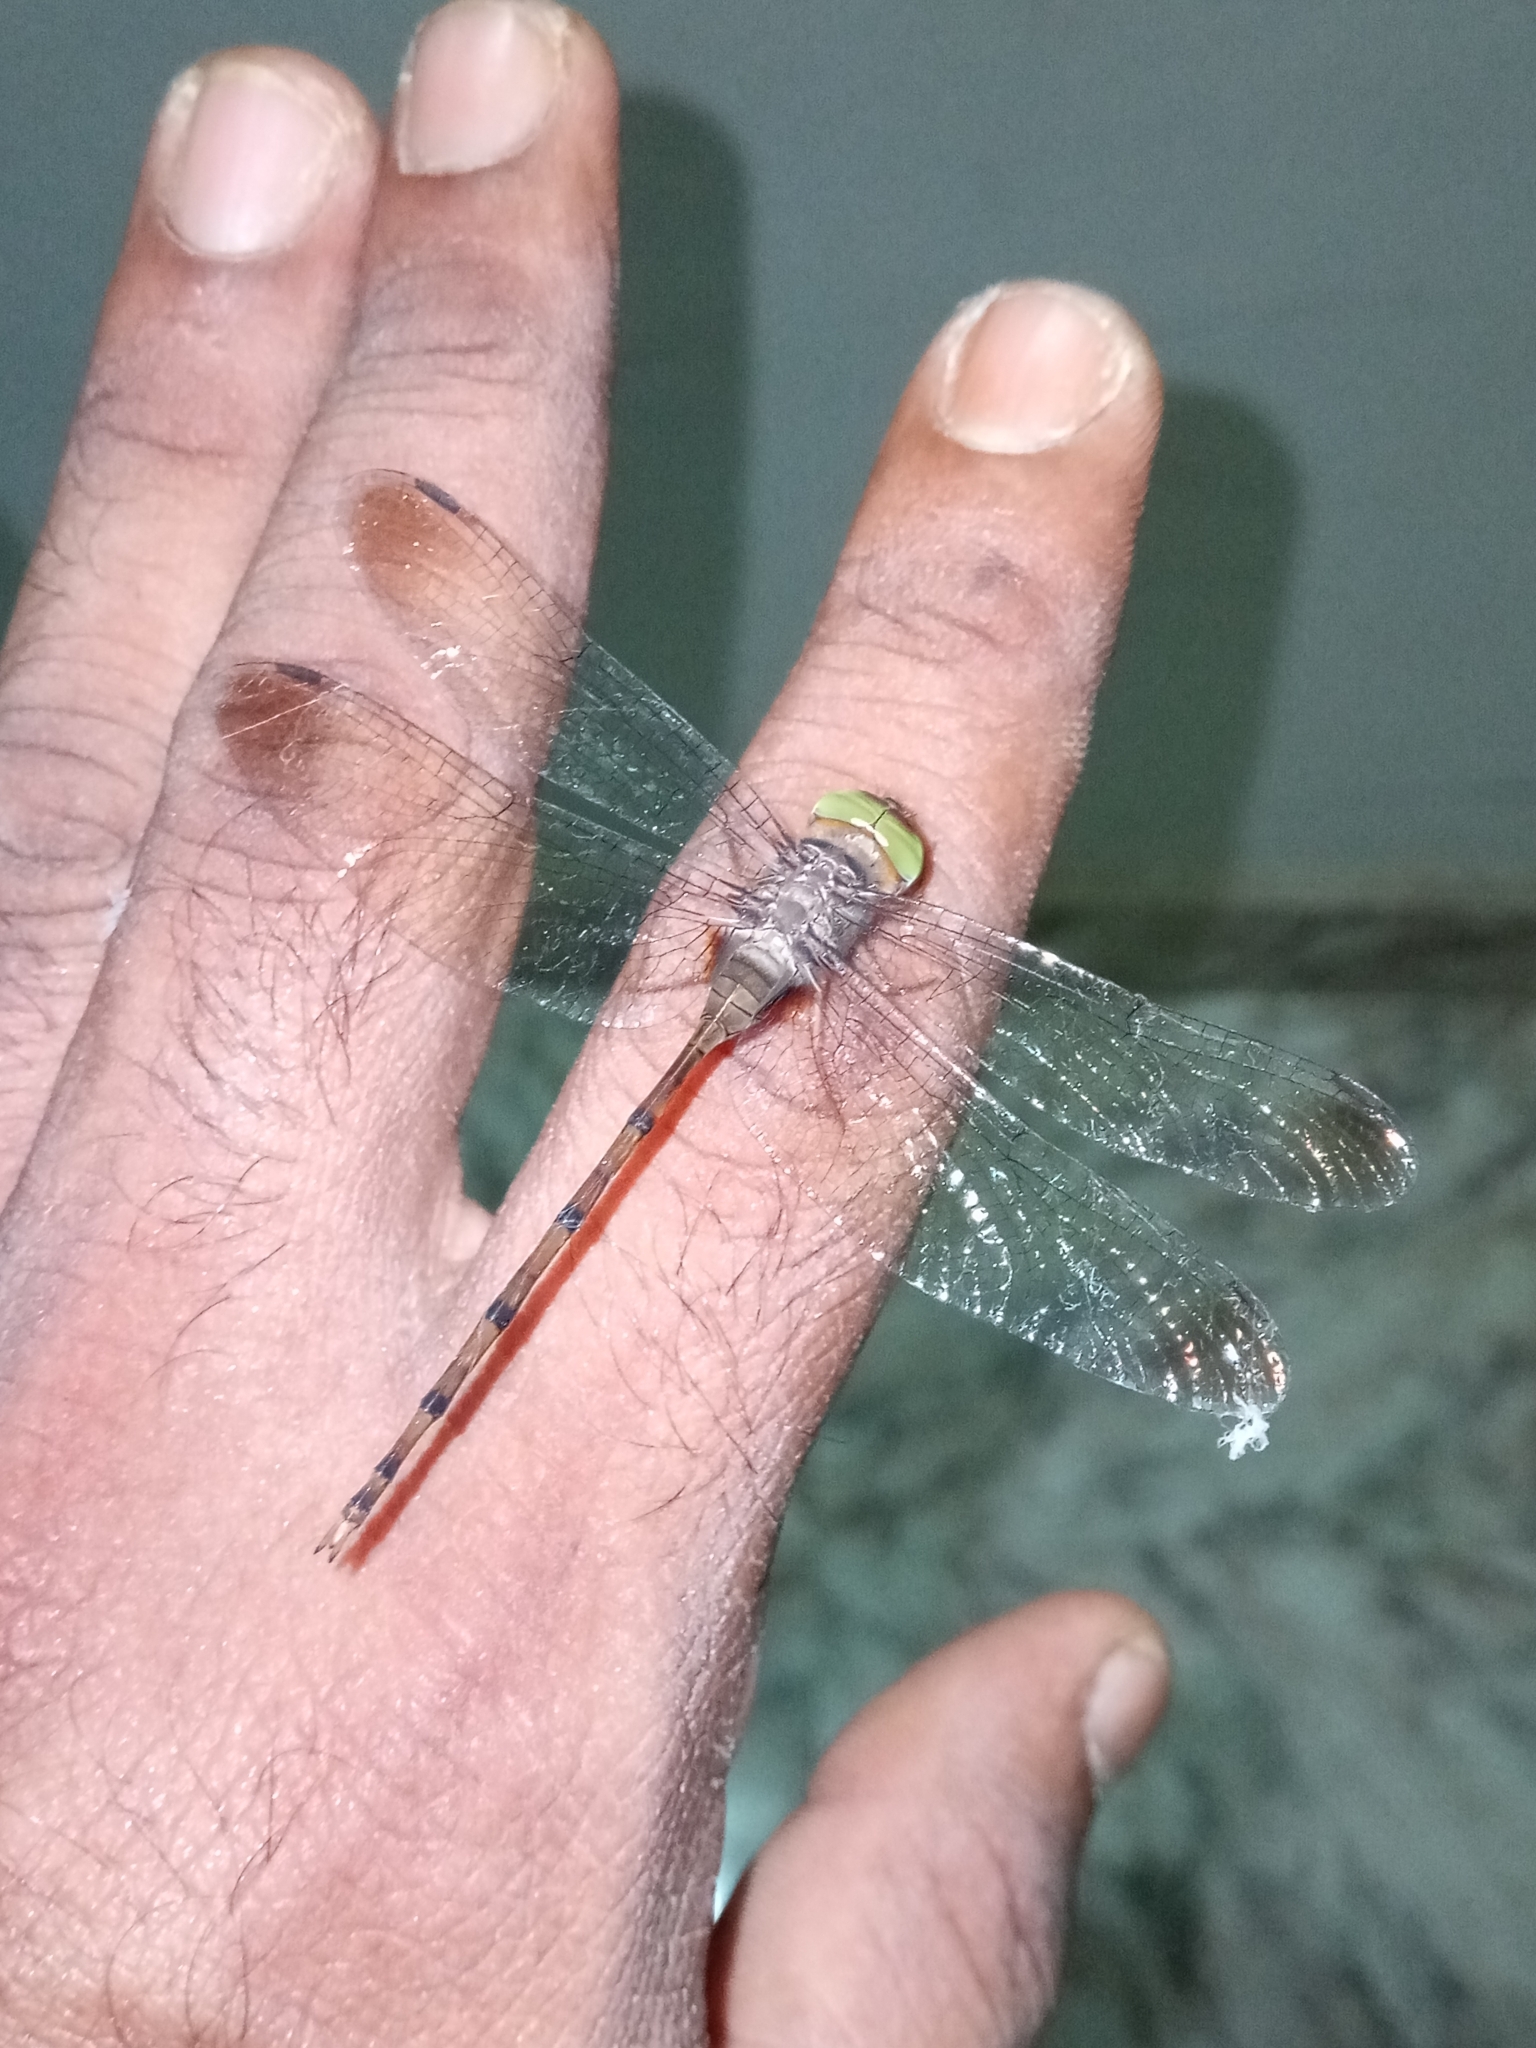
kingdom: Animalia
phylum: Arthropoda
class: Insecta
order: Odonata
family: Libellulidae
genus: Zyxomma
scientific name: Zyxomma petiolatum
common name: Dingy dusk-darter
